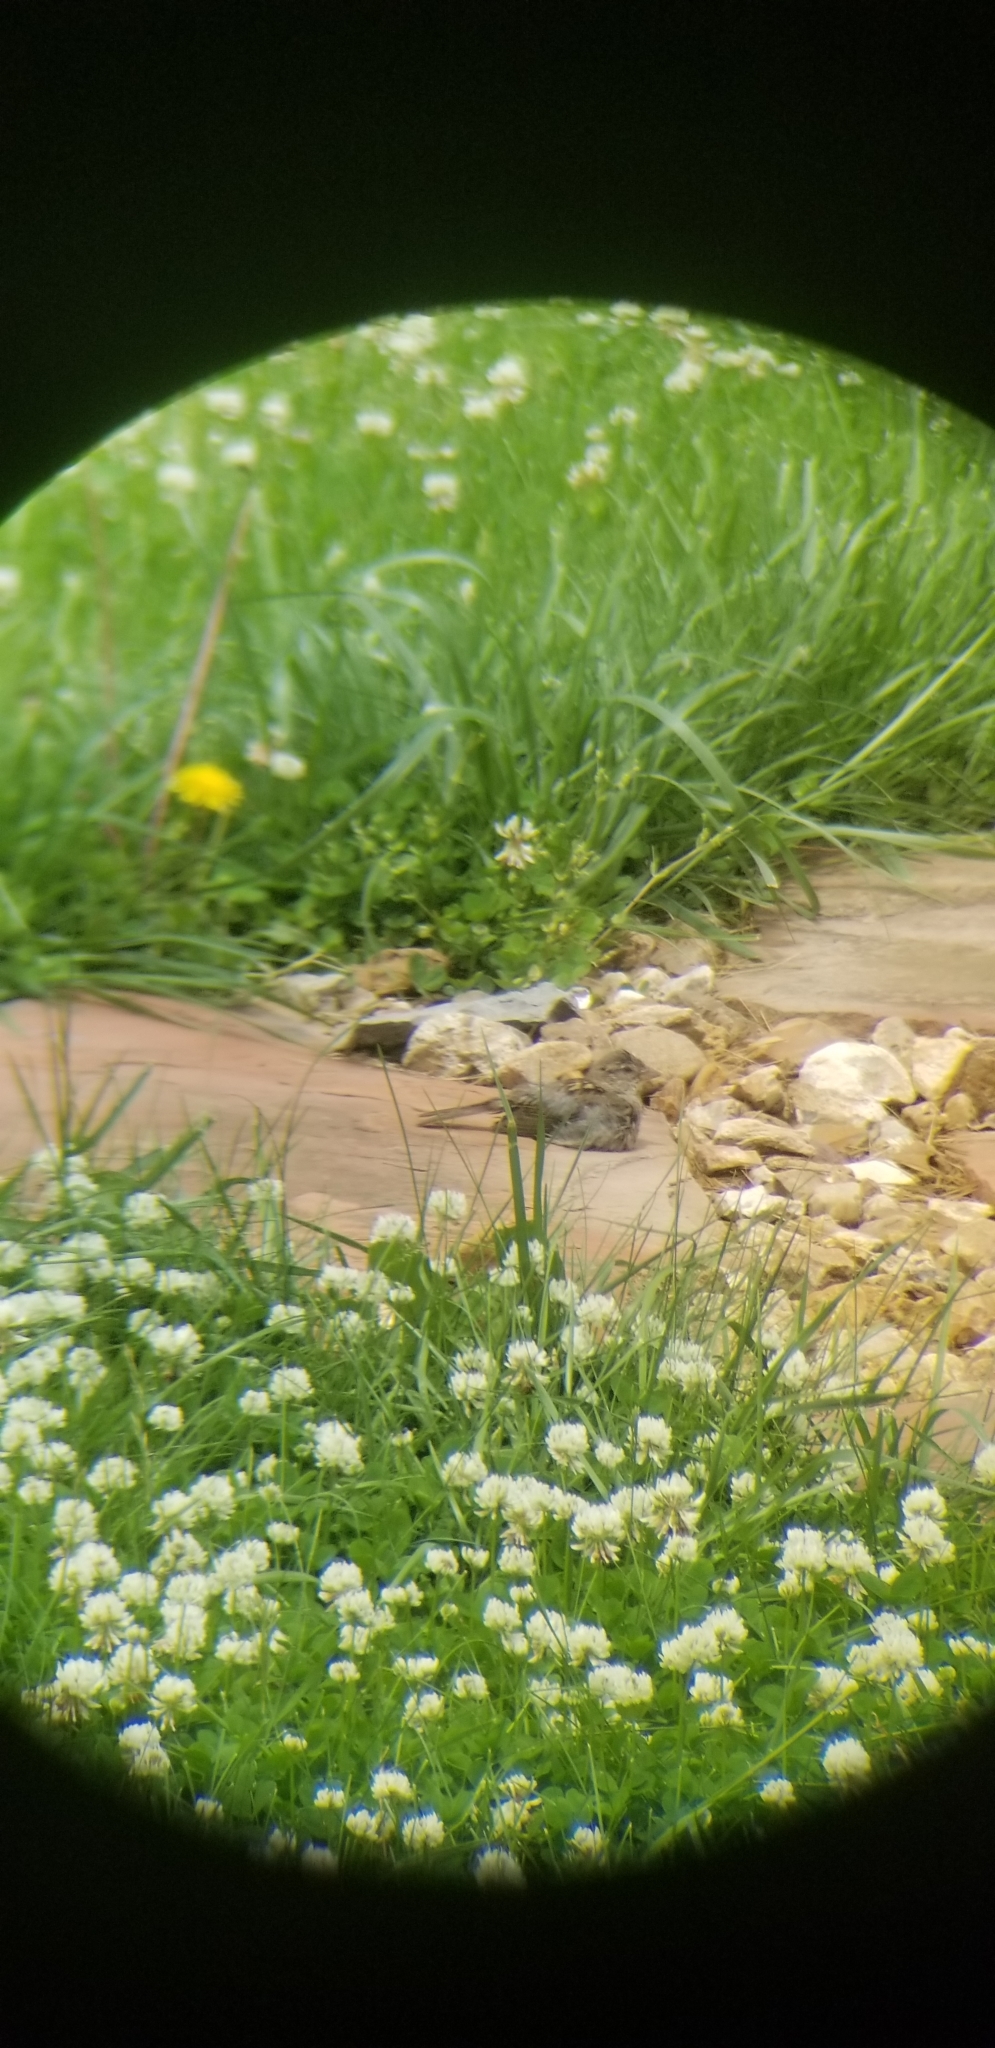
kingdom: Animalia
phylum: Chordata
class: Aves
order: Passeriformes
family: Passeridae
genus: Passer
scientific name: Passer domesticus
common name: House sparrow
